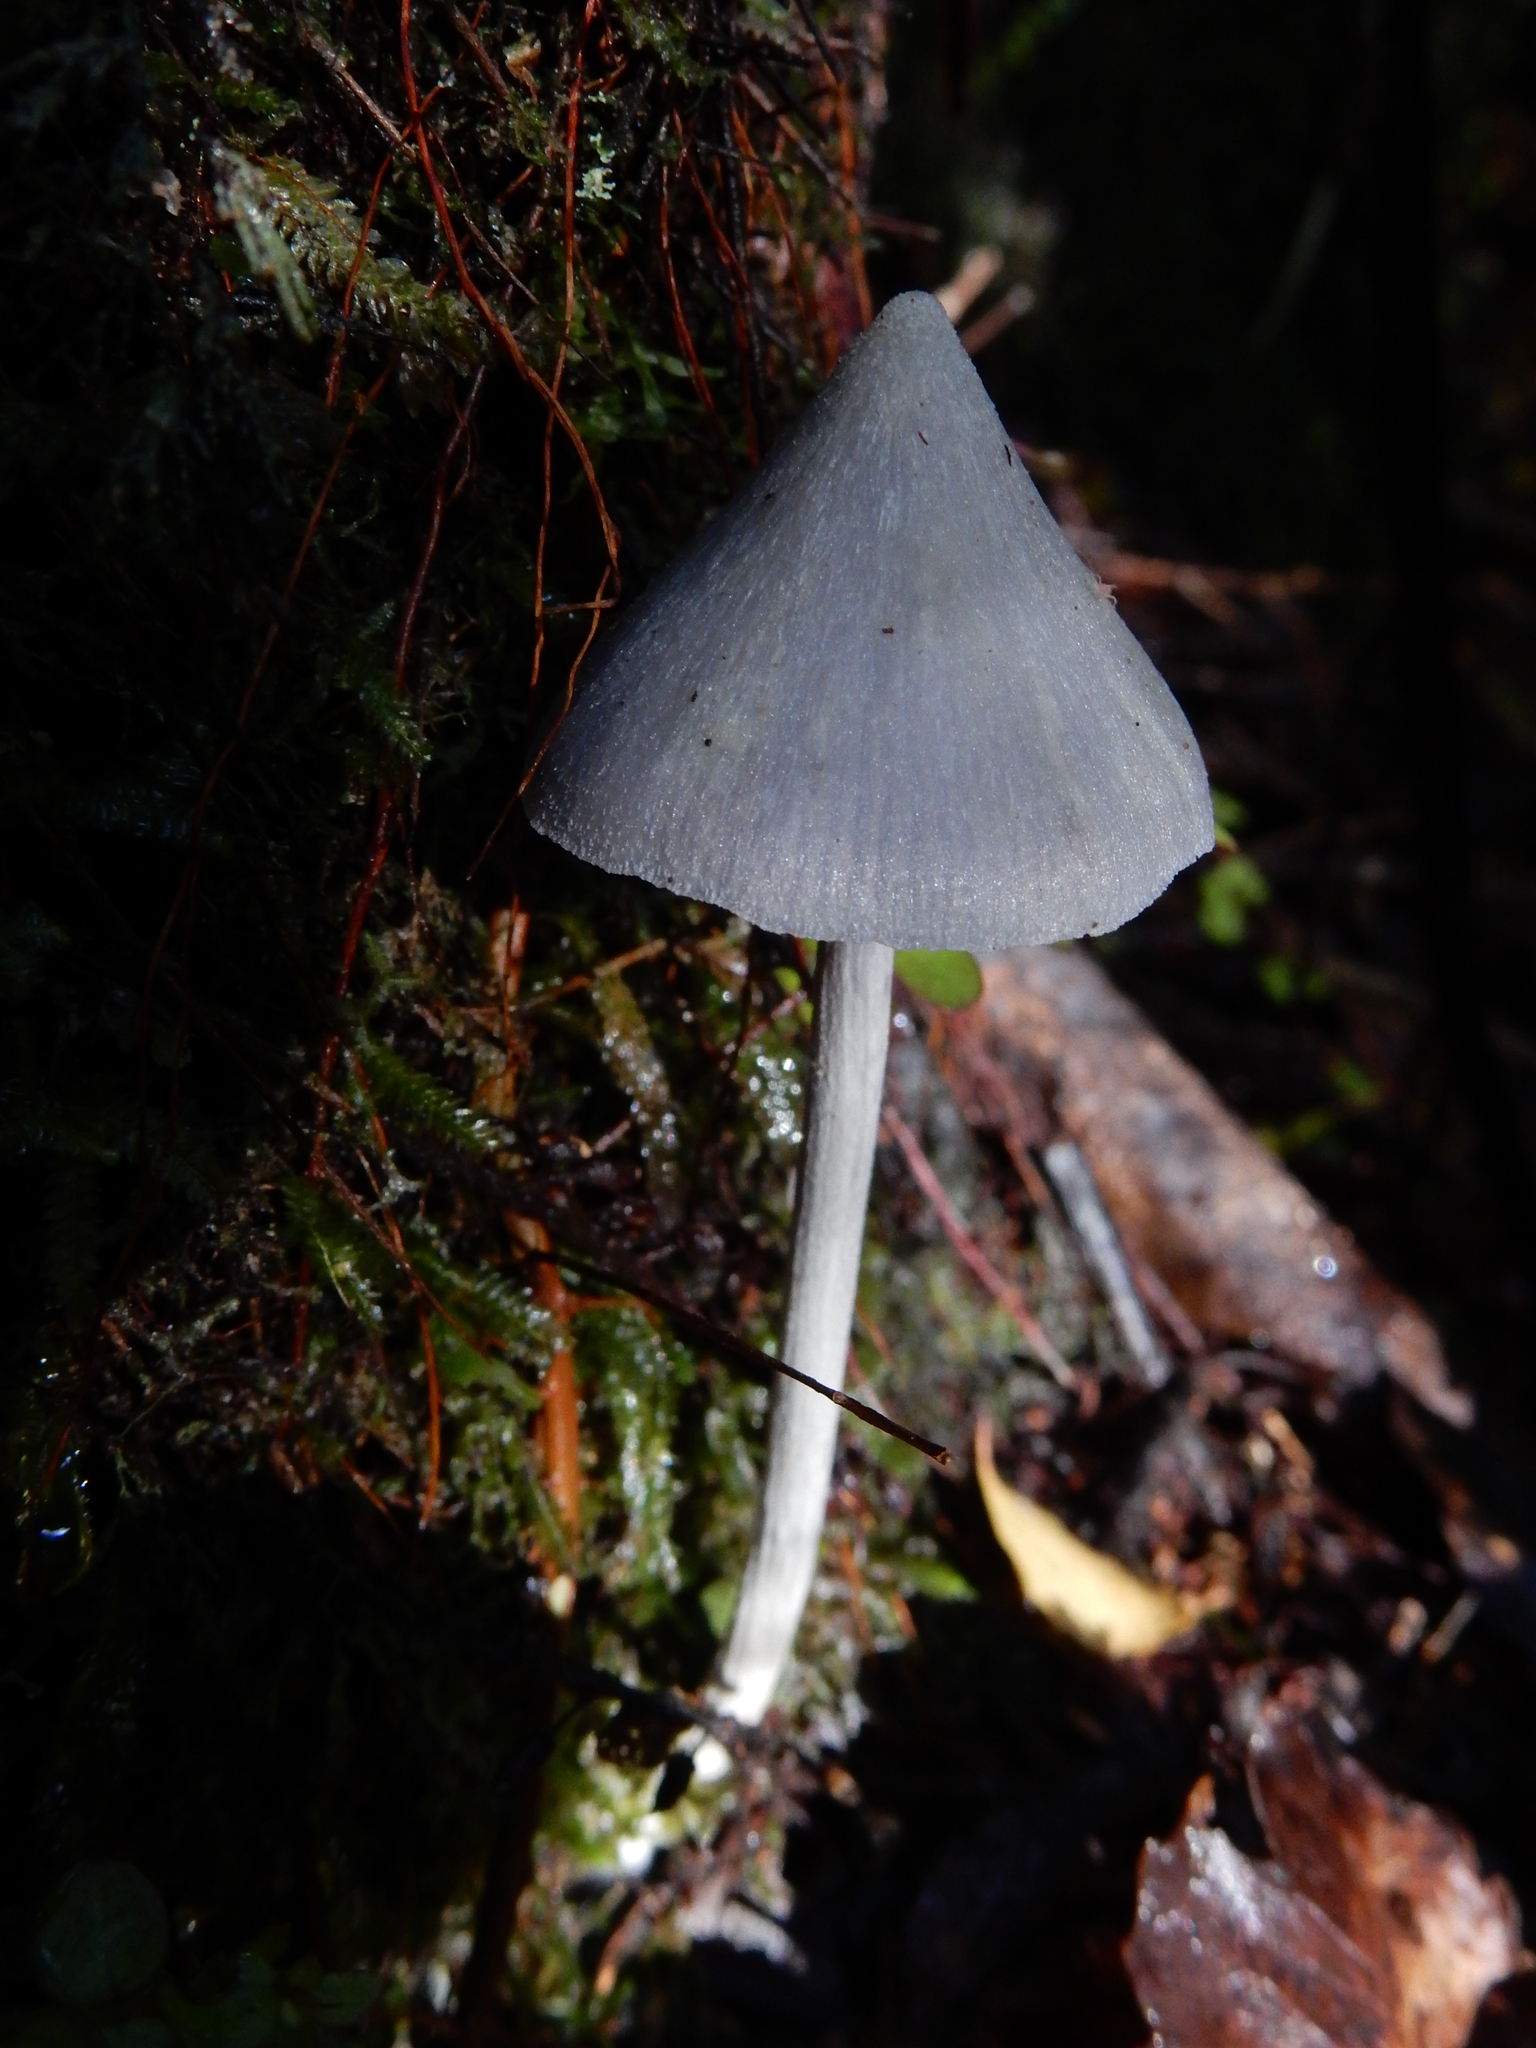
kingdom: Fungi
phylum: Basidiomycota
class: Agaricomycetes
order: Agaricales
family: Entolomataceae
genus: Entoloma
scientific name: Entoloma canoconicum
